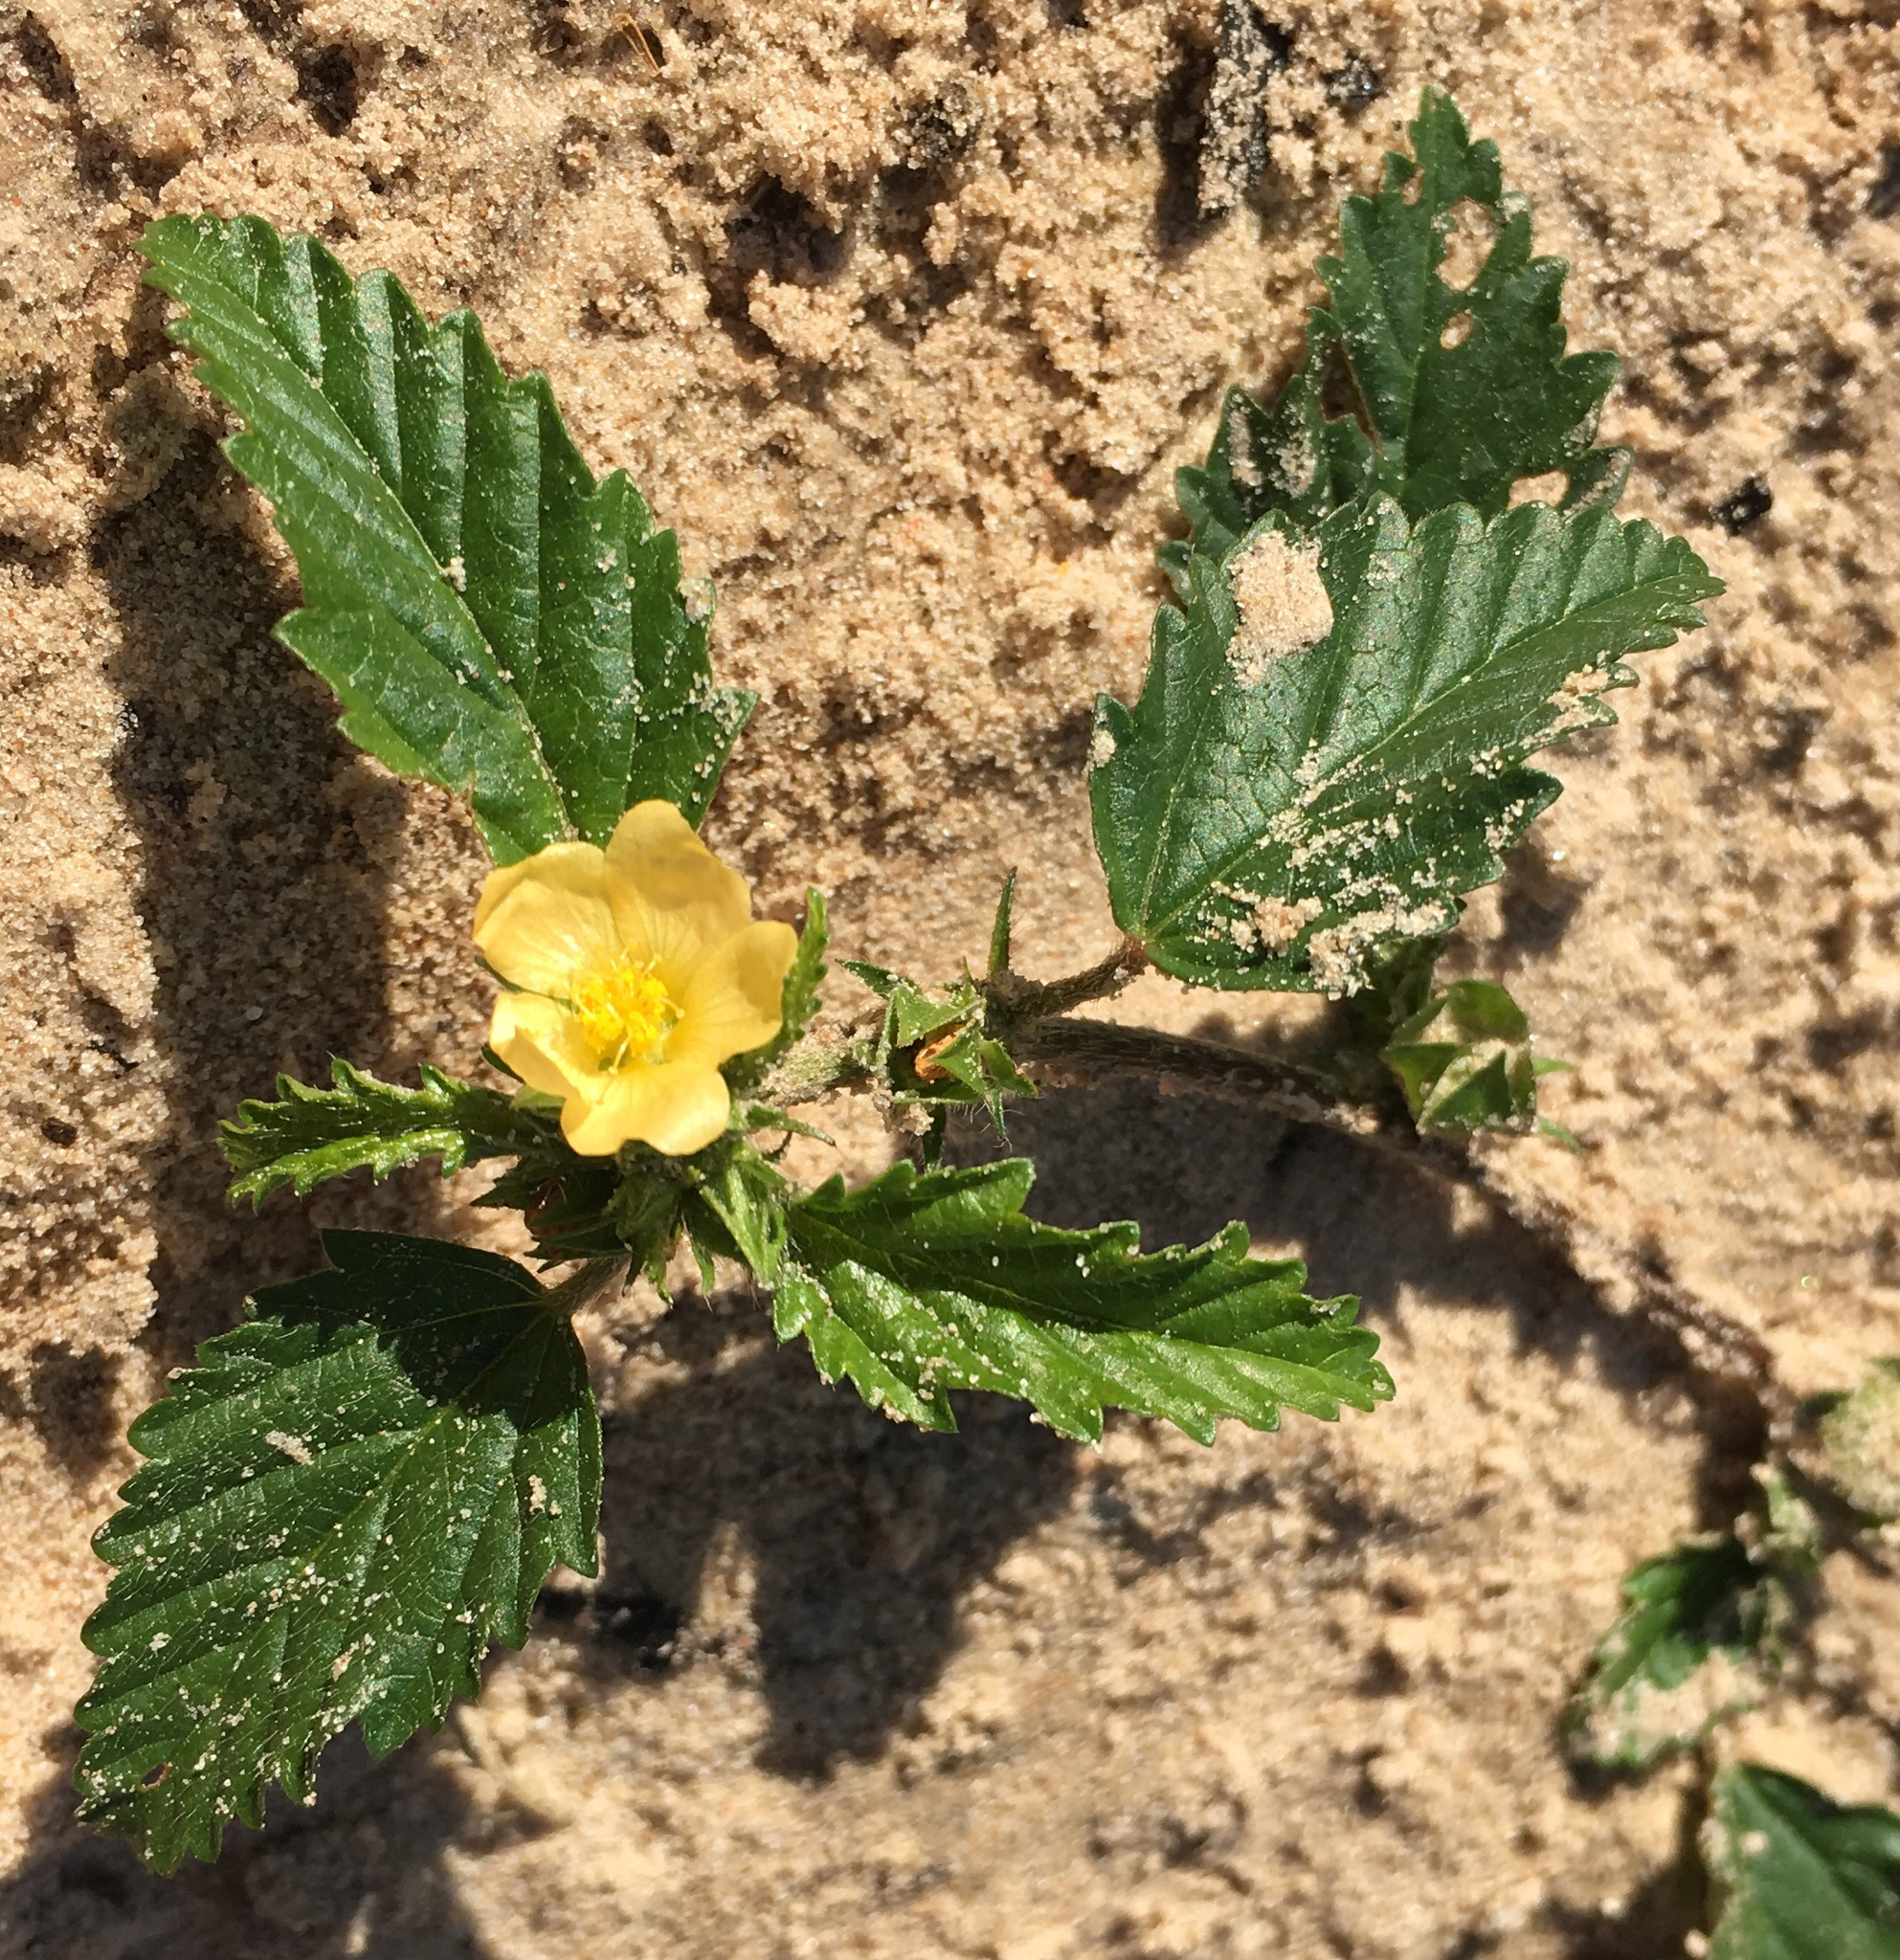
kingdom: Plantae
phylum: Tracheophyta
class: Magnoliopsida
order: Malvales
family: Malvaceae
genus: Malvastrum
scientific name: Malvastrum coromandelianum
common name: Threelobe false mallow
